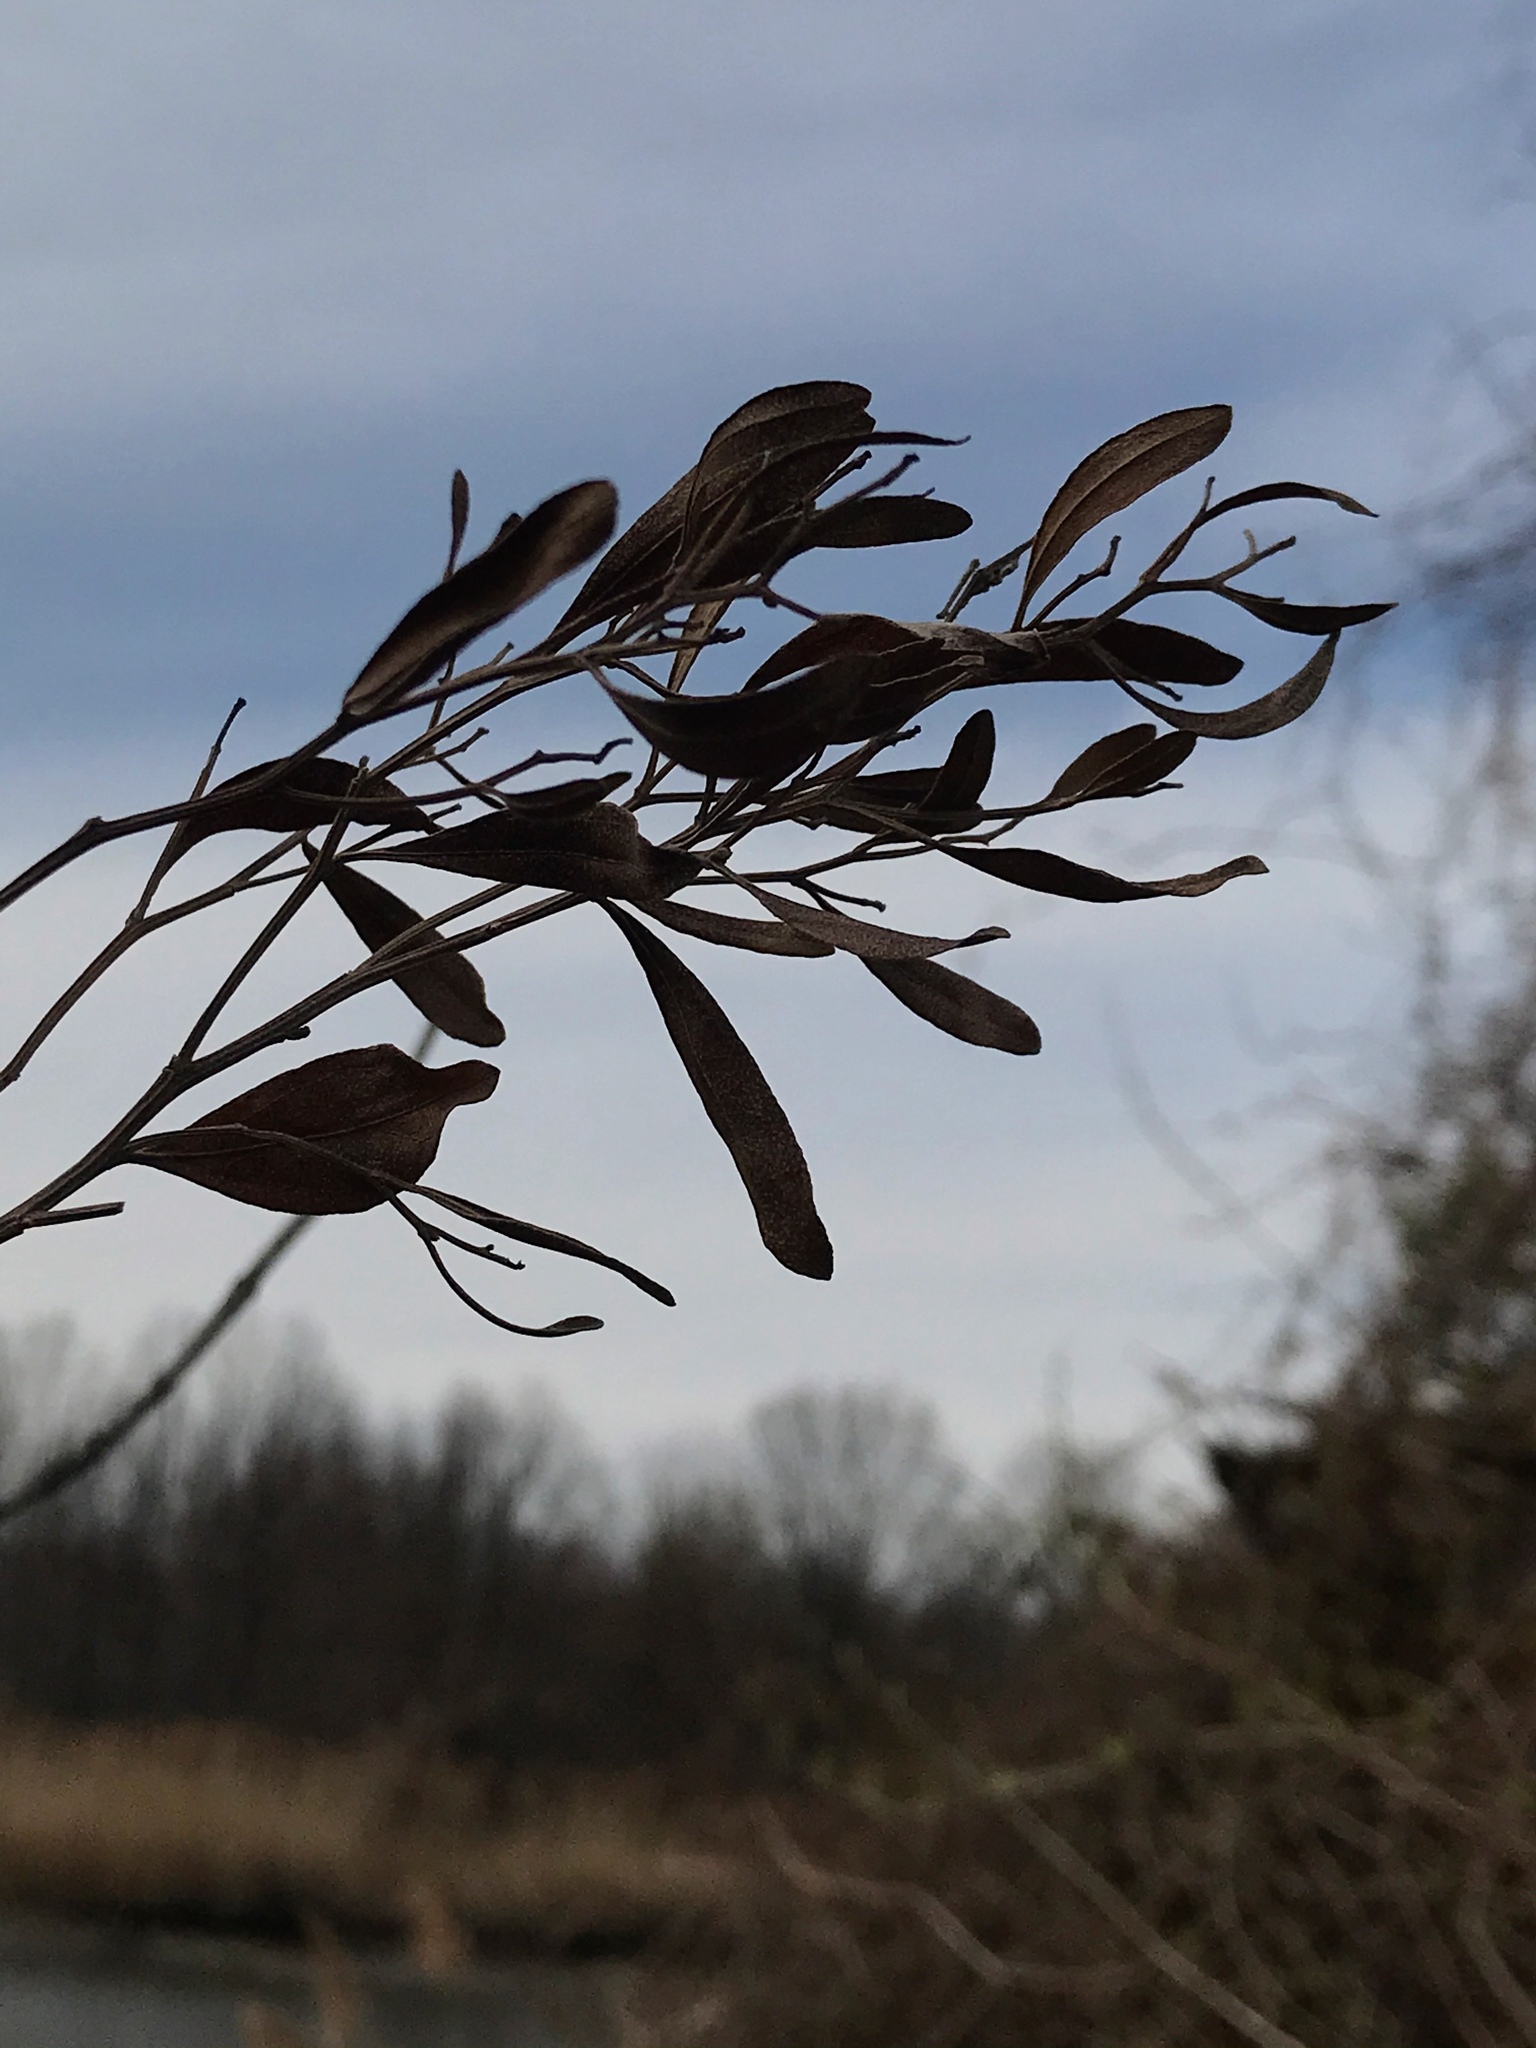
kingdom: Plantae
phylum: Tracheophyta
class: Magnoliopsida
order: Asterales
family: Asteraceae
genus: Baccharis
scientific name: Baccharis halimifolia
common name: Eastern baccharis
